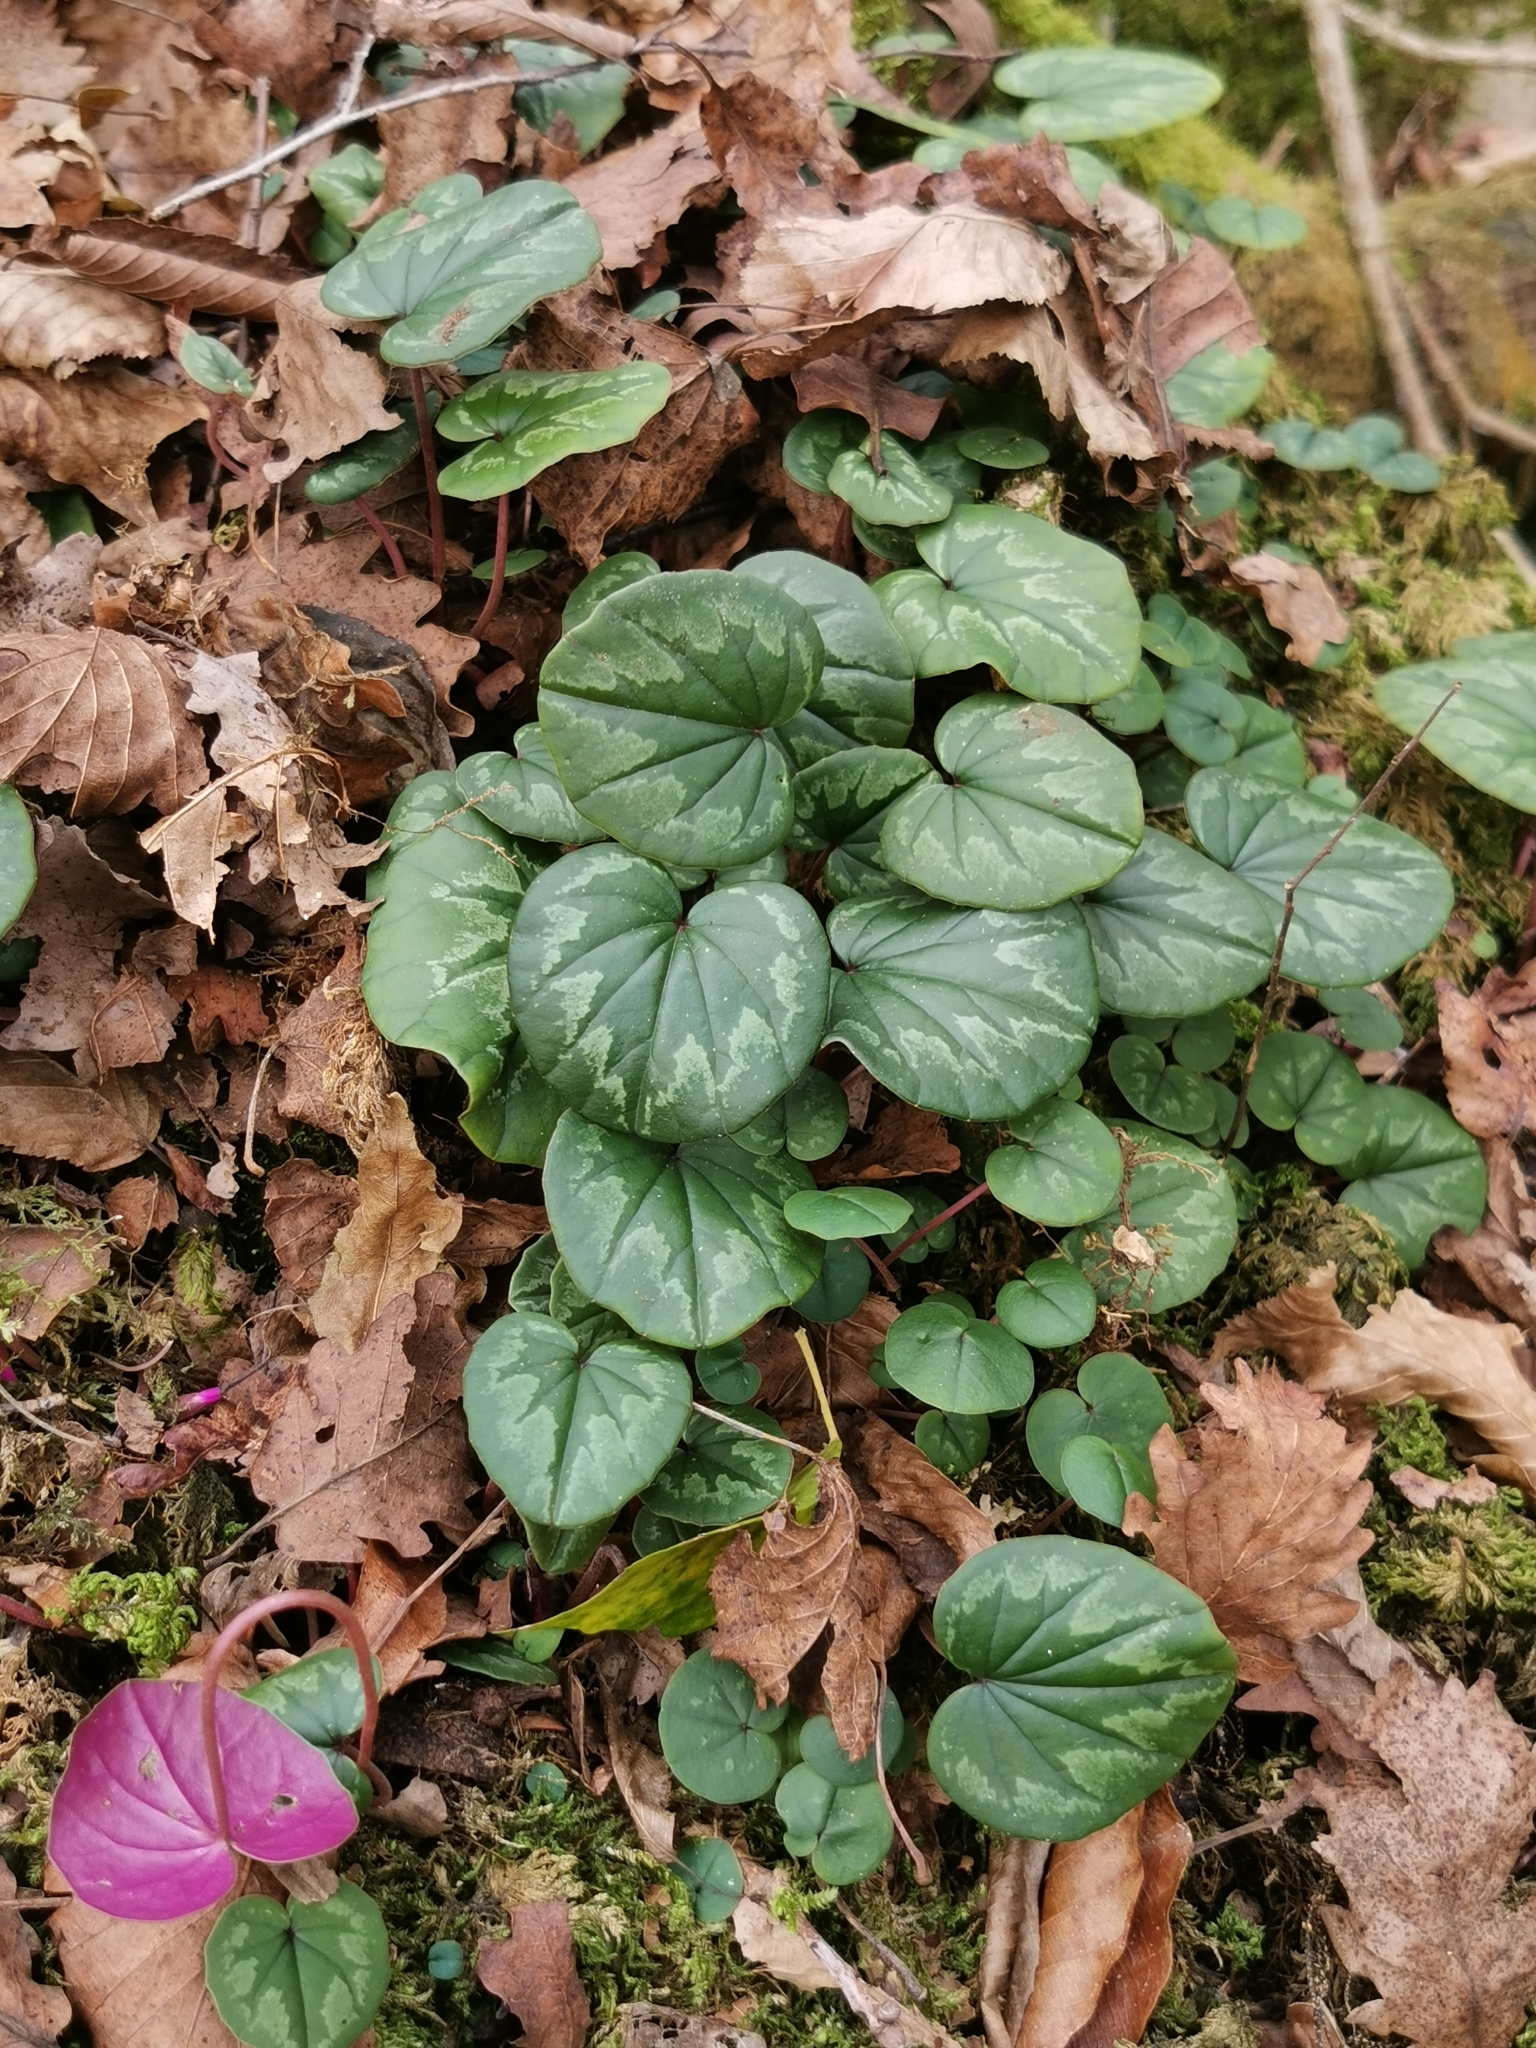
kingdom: Plantae
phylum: Tracheophyta
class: Magnoliopsida
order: Ericales
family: Primulaceae
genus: Cyclamen
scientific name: Cyclamen coum
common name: Eastern sowbread
